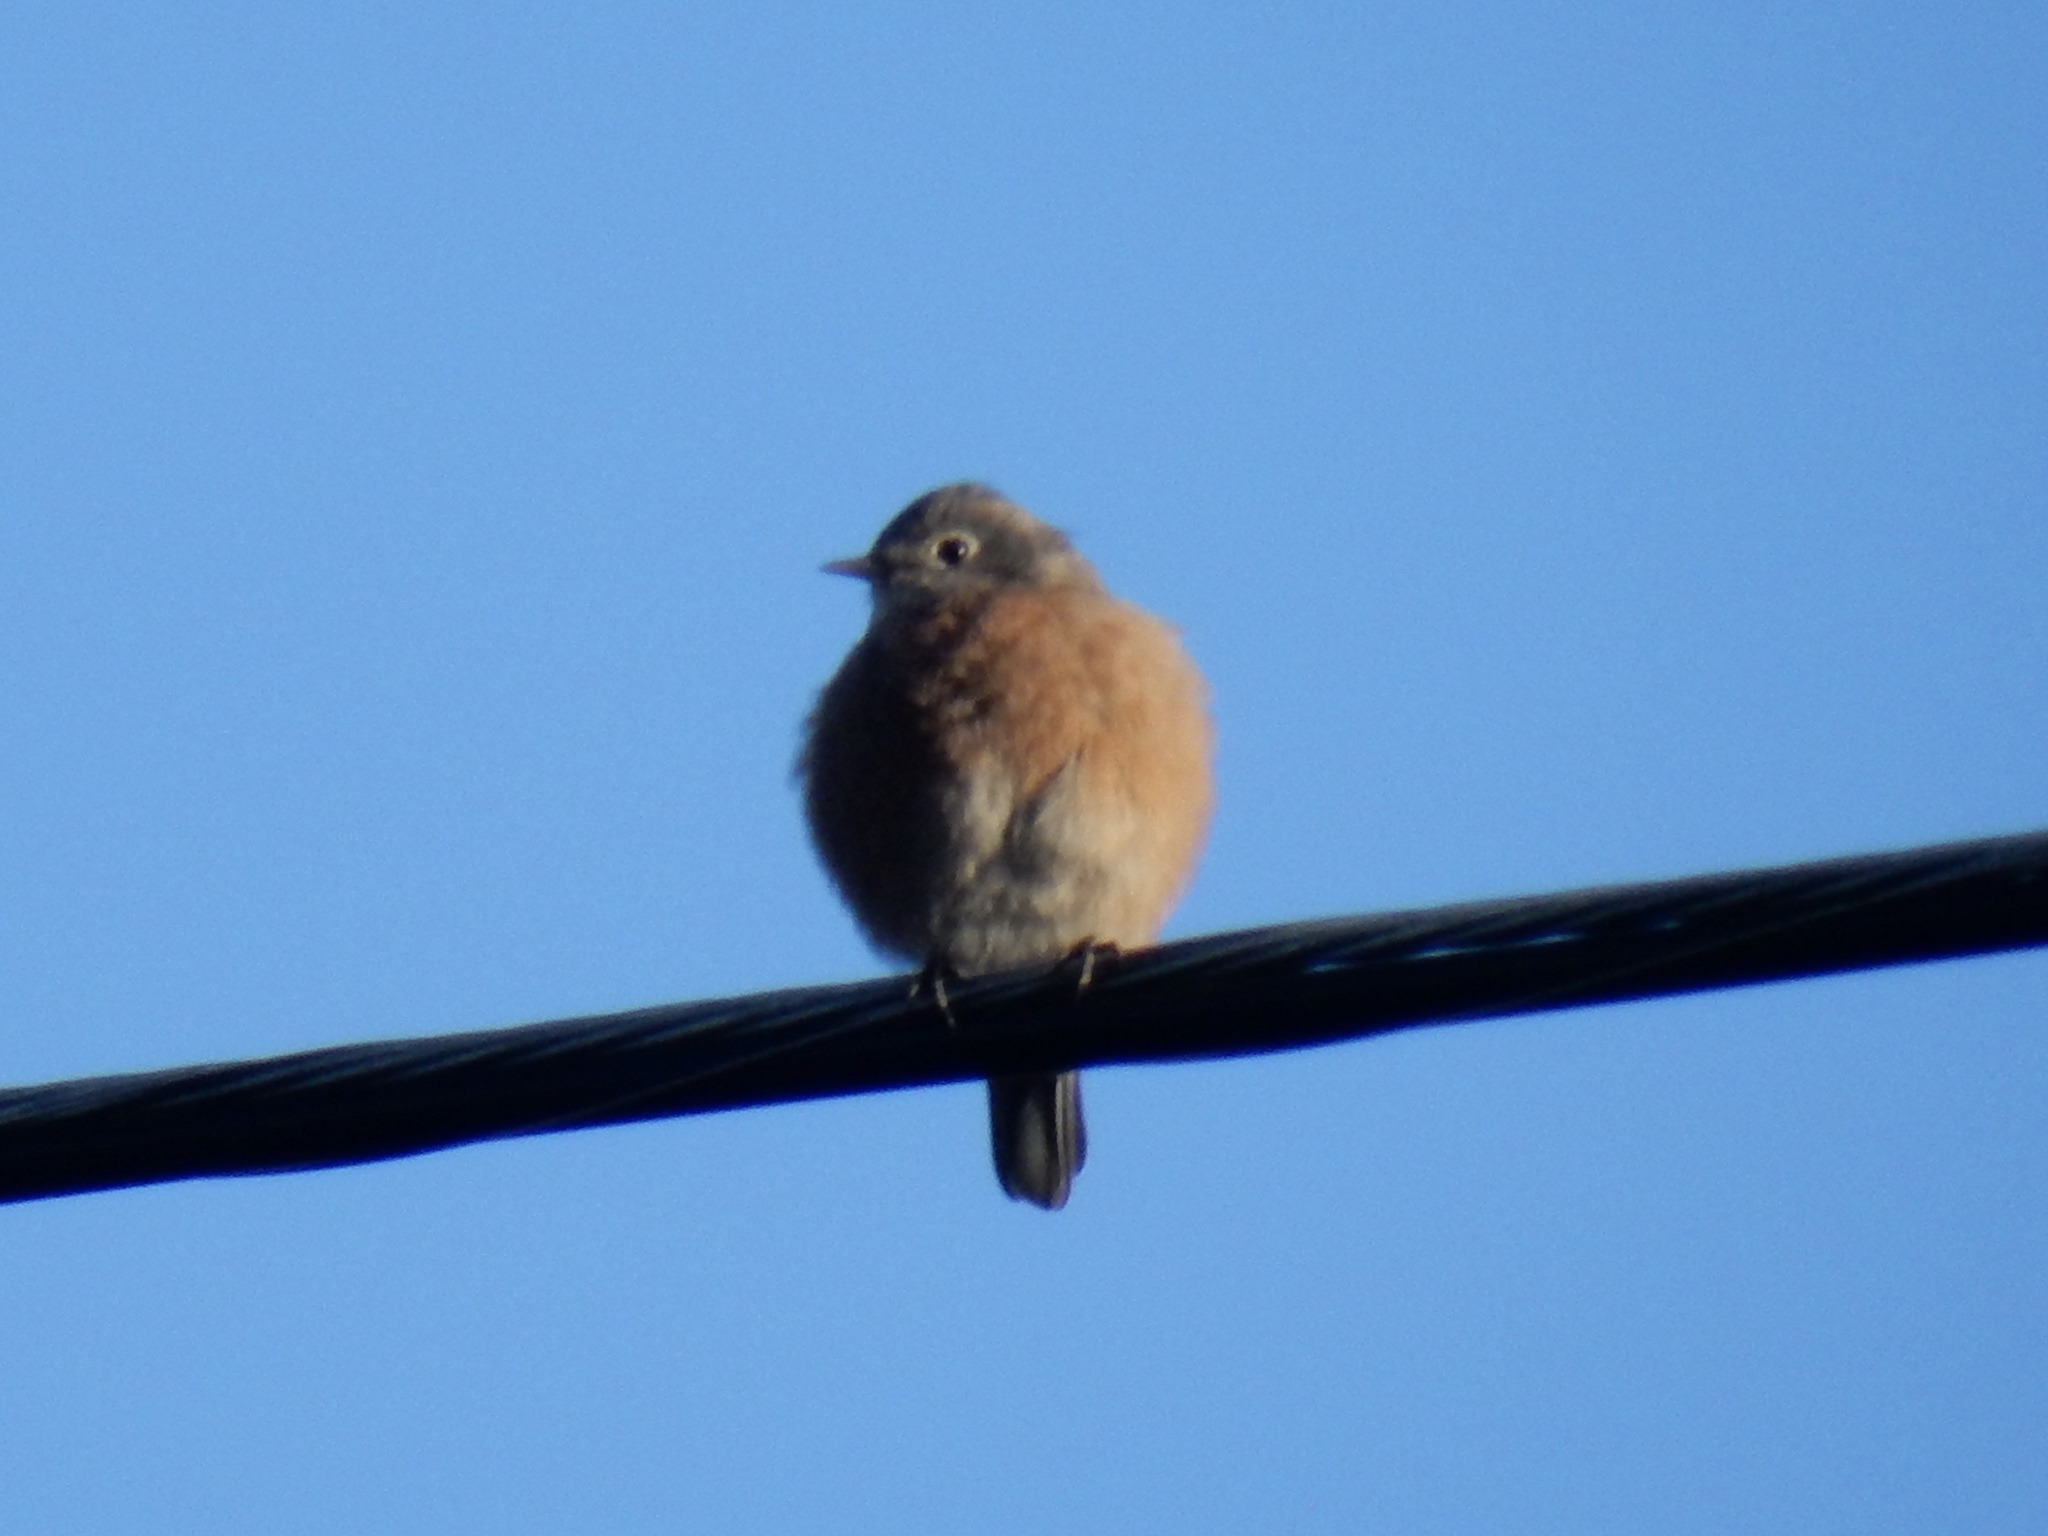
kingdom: Animalia
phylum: Chordata
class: Aves
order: Passeriformes
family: Turdidae
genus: Sialia
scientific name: Sialia mexicana
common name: Western bluebird
